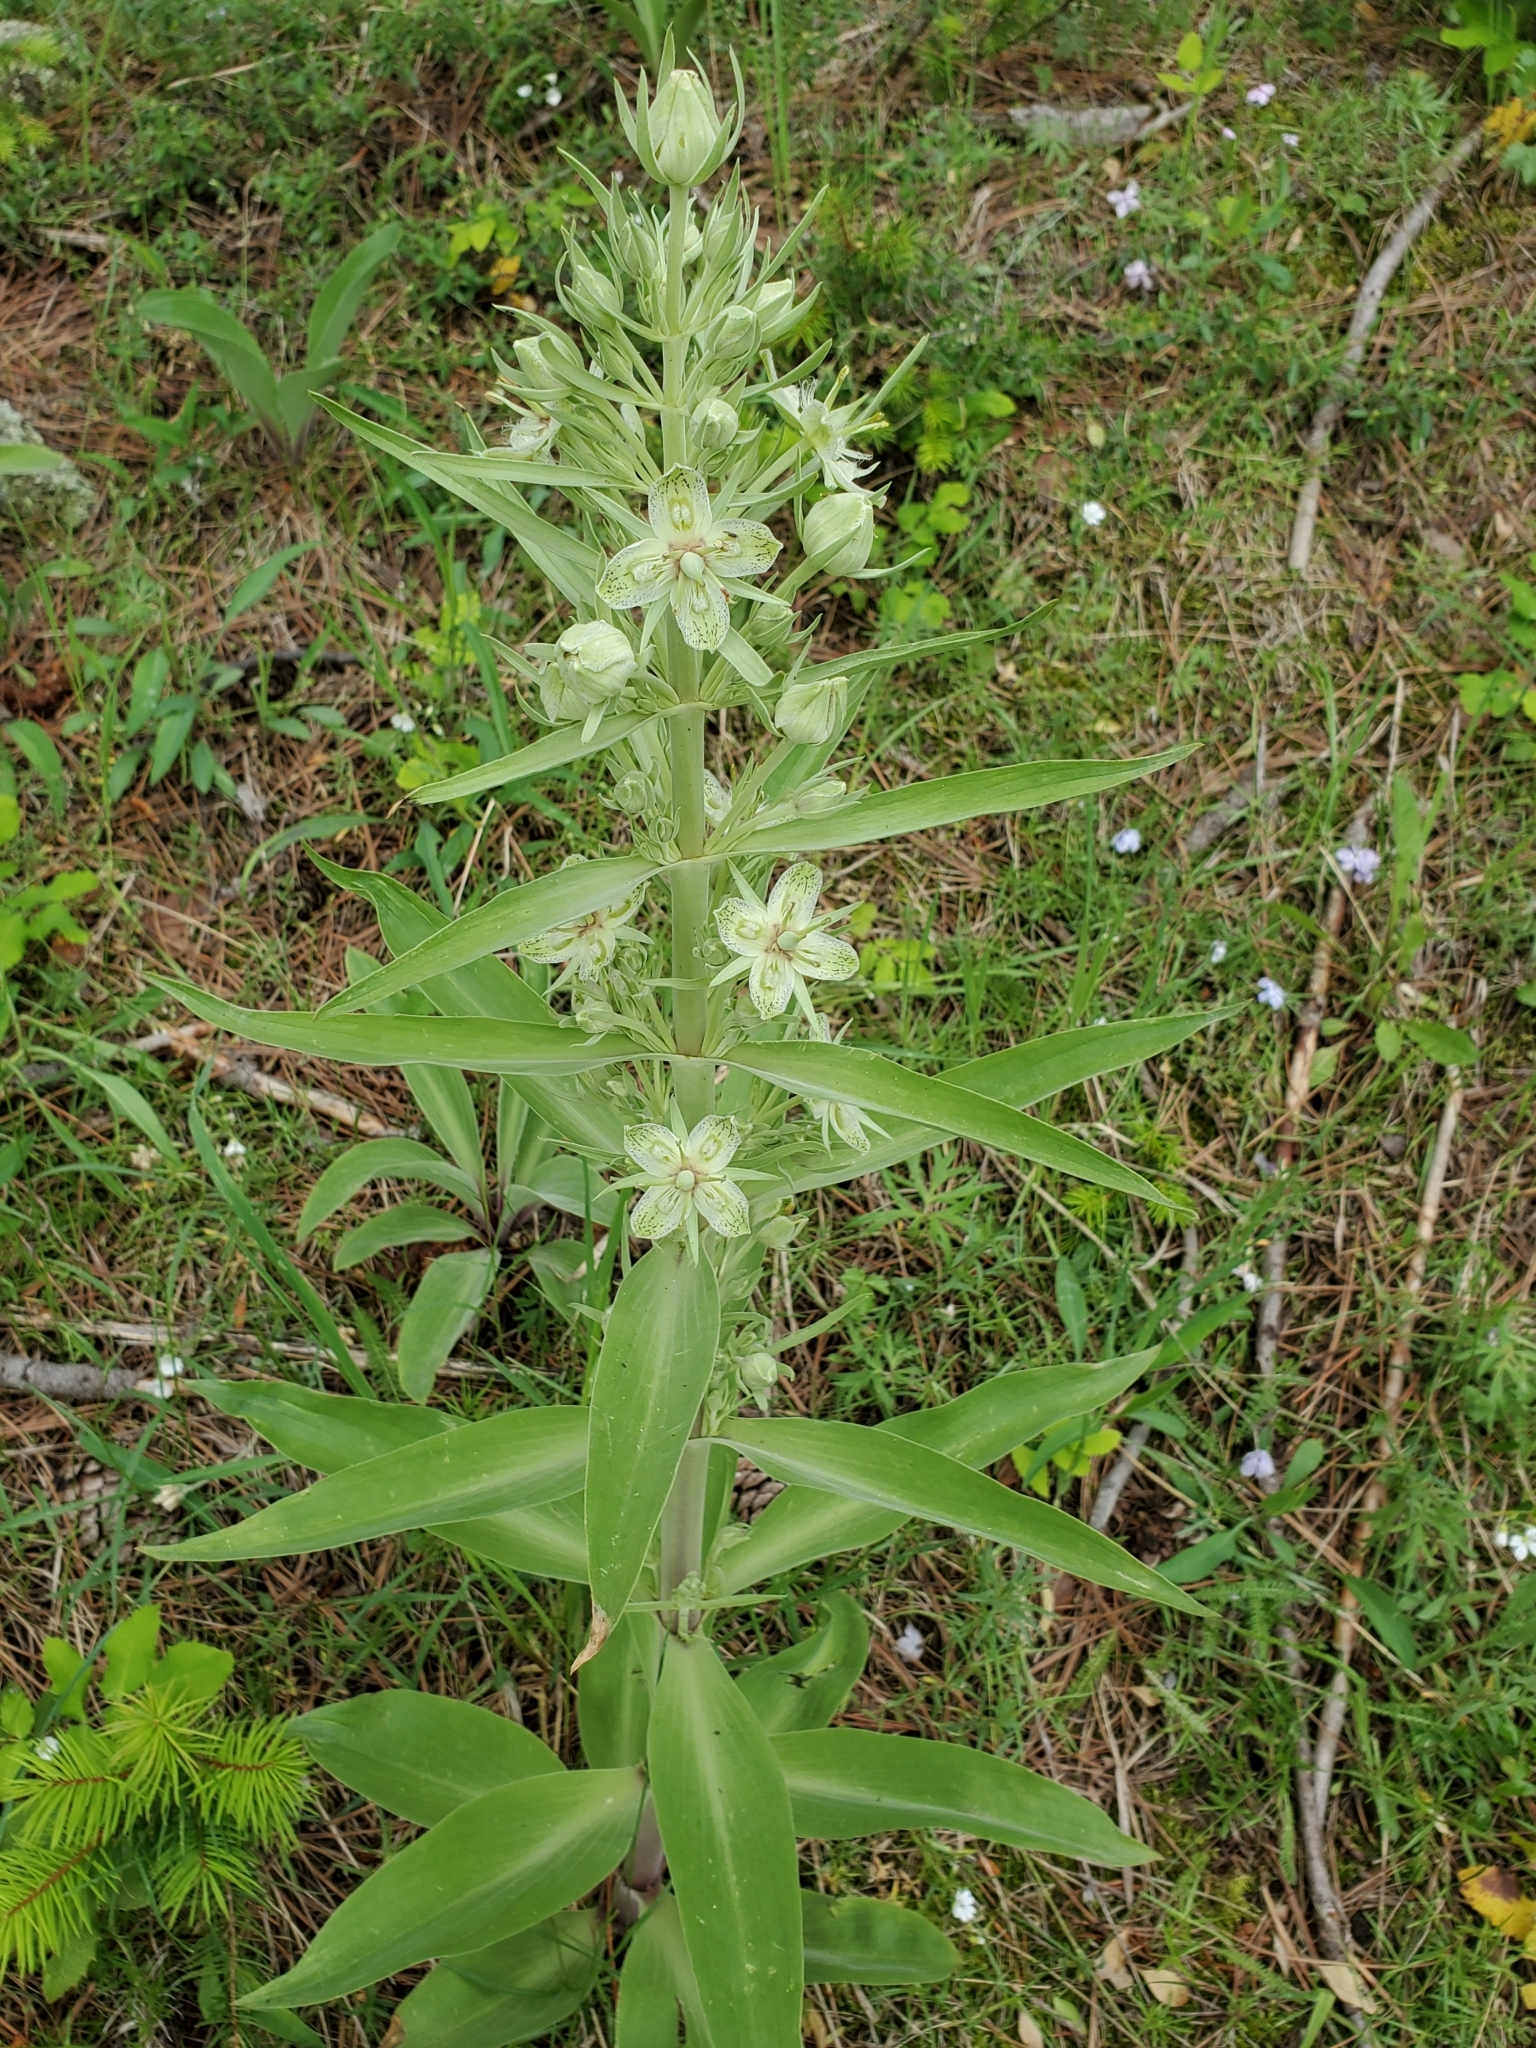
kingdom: Plantae
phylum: Tracheophyta
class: Magnoliopsida
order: Gentianales
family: Gentianaceae
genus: Frasera
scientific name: Frasera speciosa
